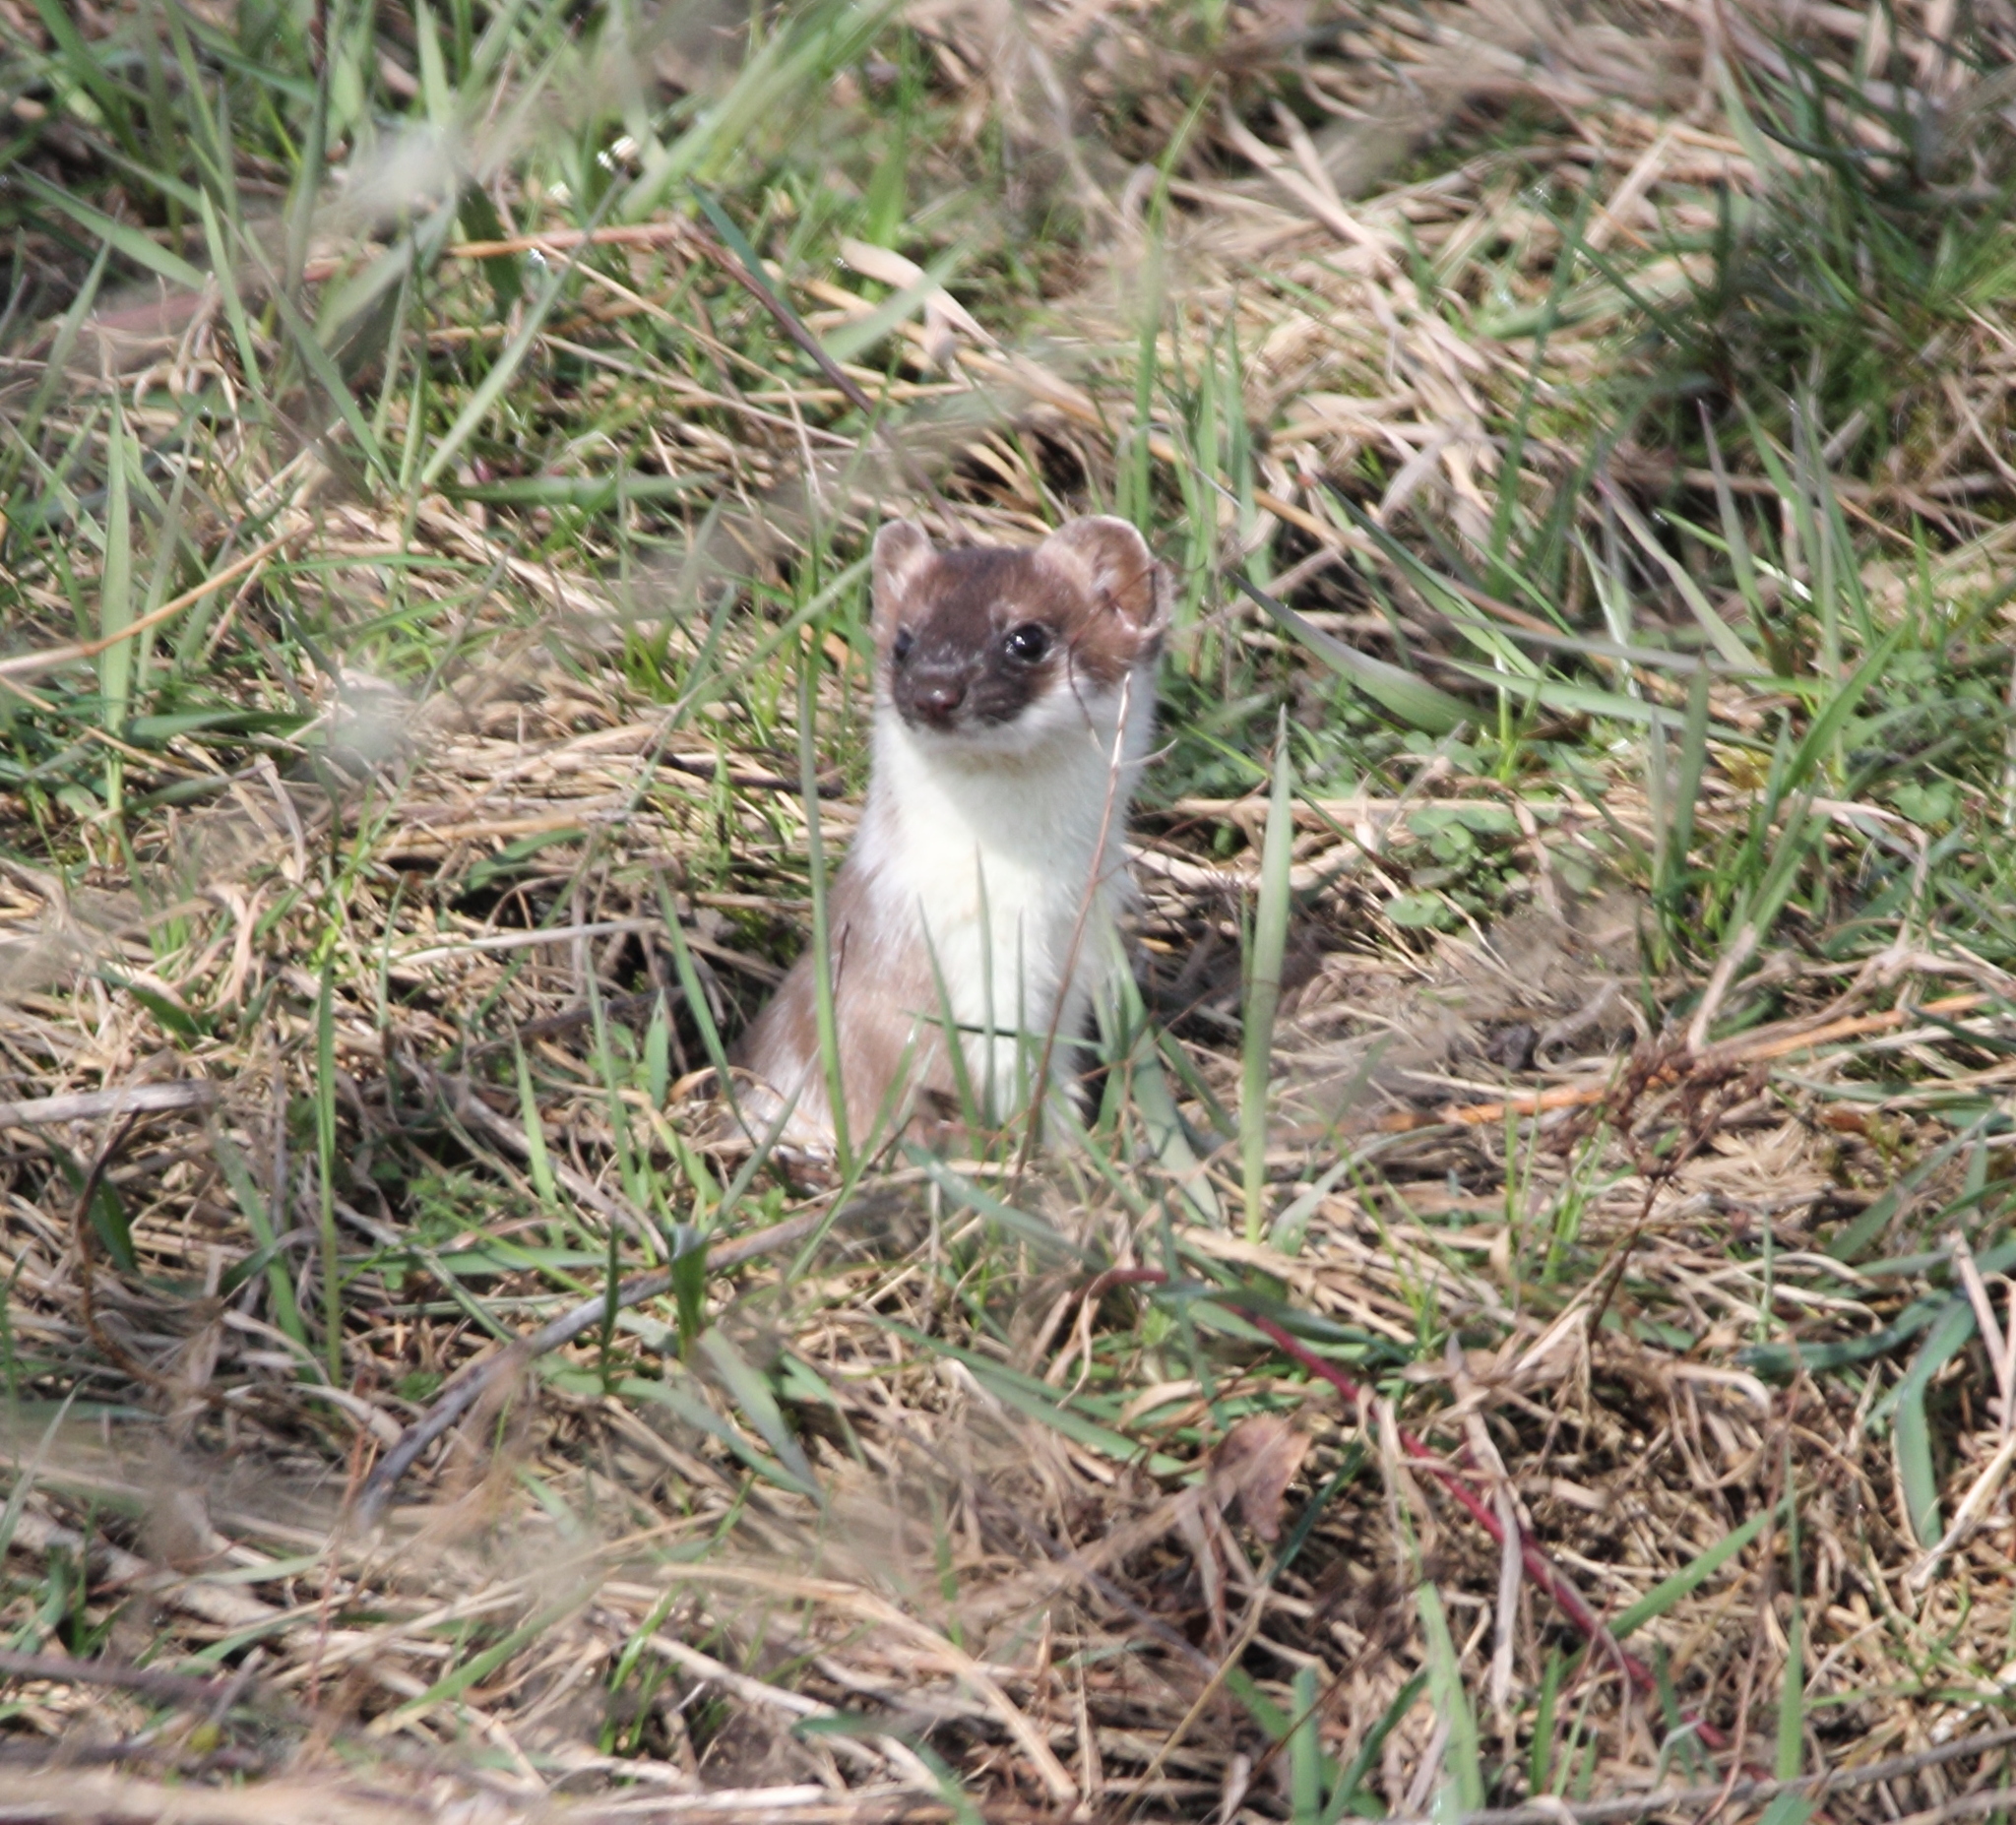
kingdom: Animalia
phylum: Chordata
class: Mammalia
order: Carnivora
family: Mustelidae
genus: Mustela
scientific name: Mustela erminea
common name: Stoat
